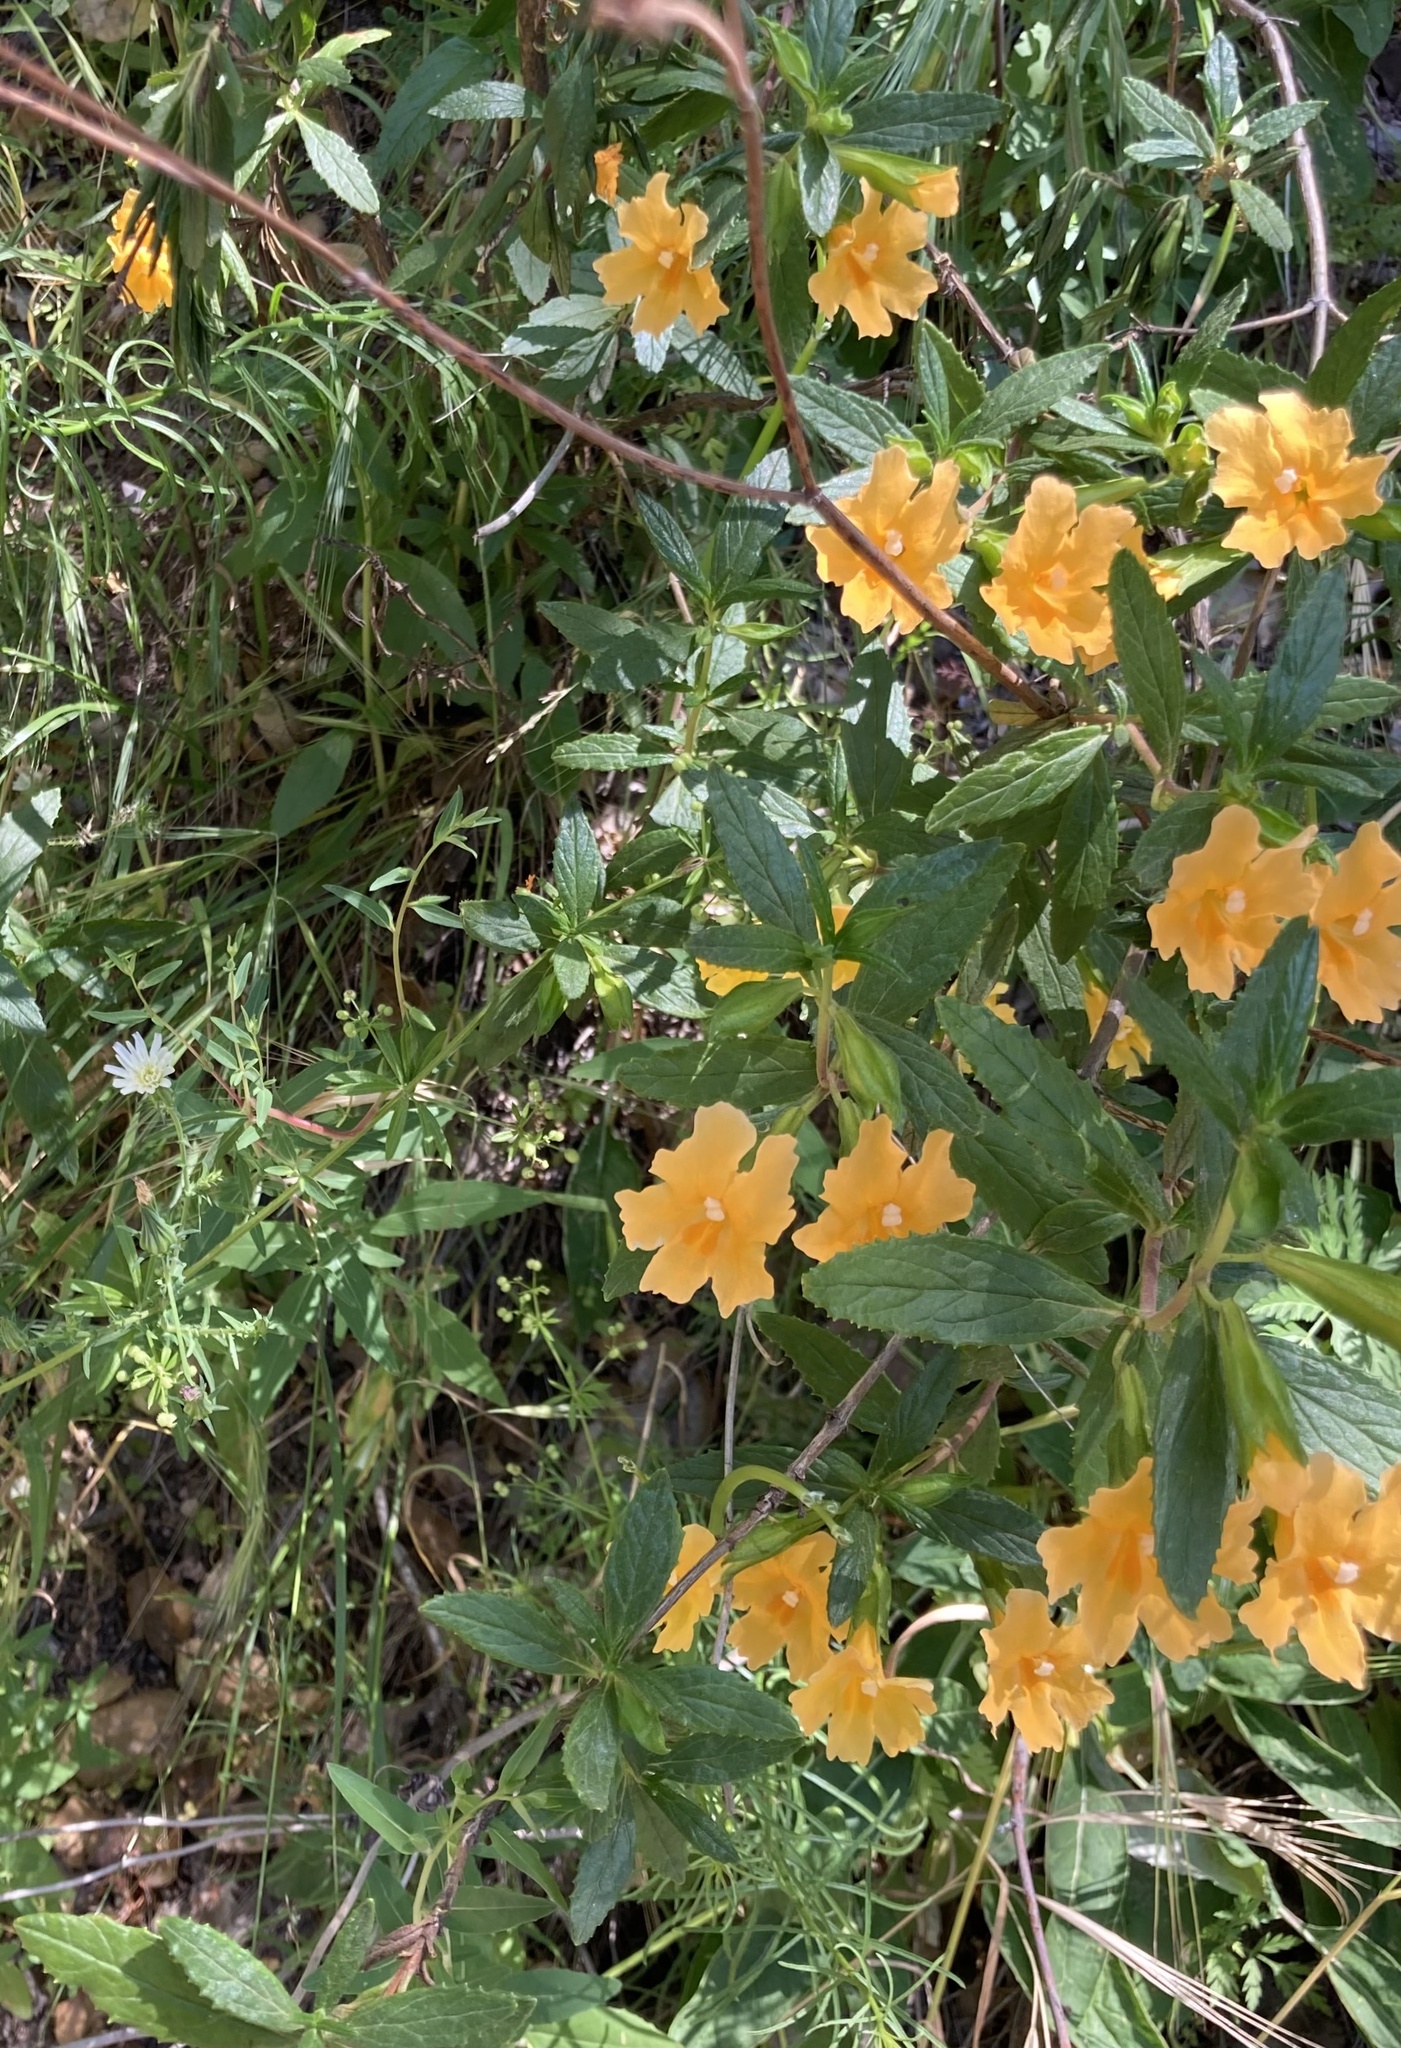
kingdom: Plantae
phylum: Tracheophyta
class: Magnoliopsida
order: Lamiales
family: Phrymaceae
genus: Diplacus
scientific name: Diplacus aurantiacus
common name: Bush monkey-flower
